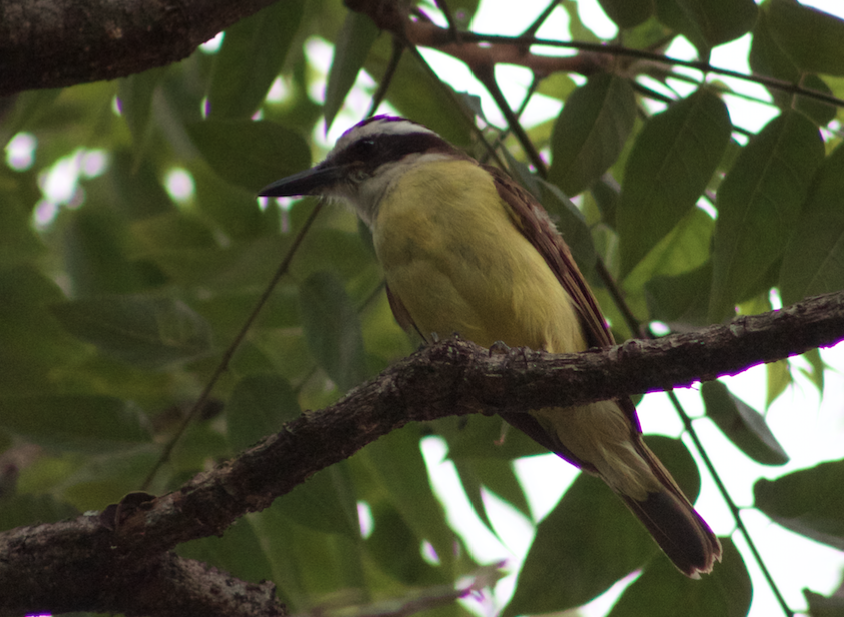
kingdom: Animalia
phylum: Chordata
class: Aves
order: Passeriformes
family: Tyrannidae
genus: Pitangus
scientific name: Pitangus sulphuratus
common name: Great kiskadee
